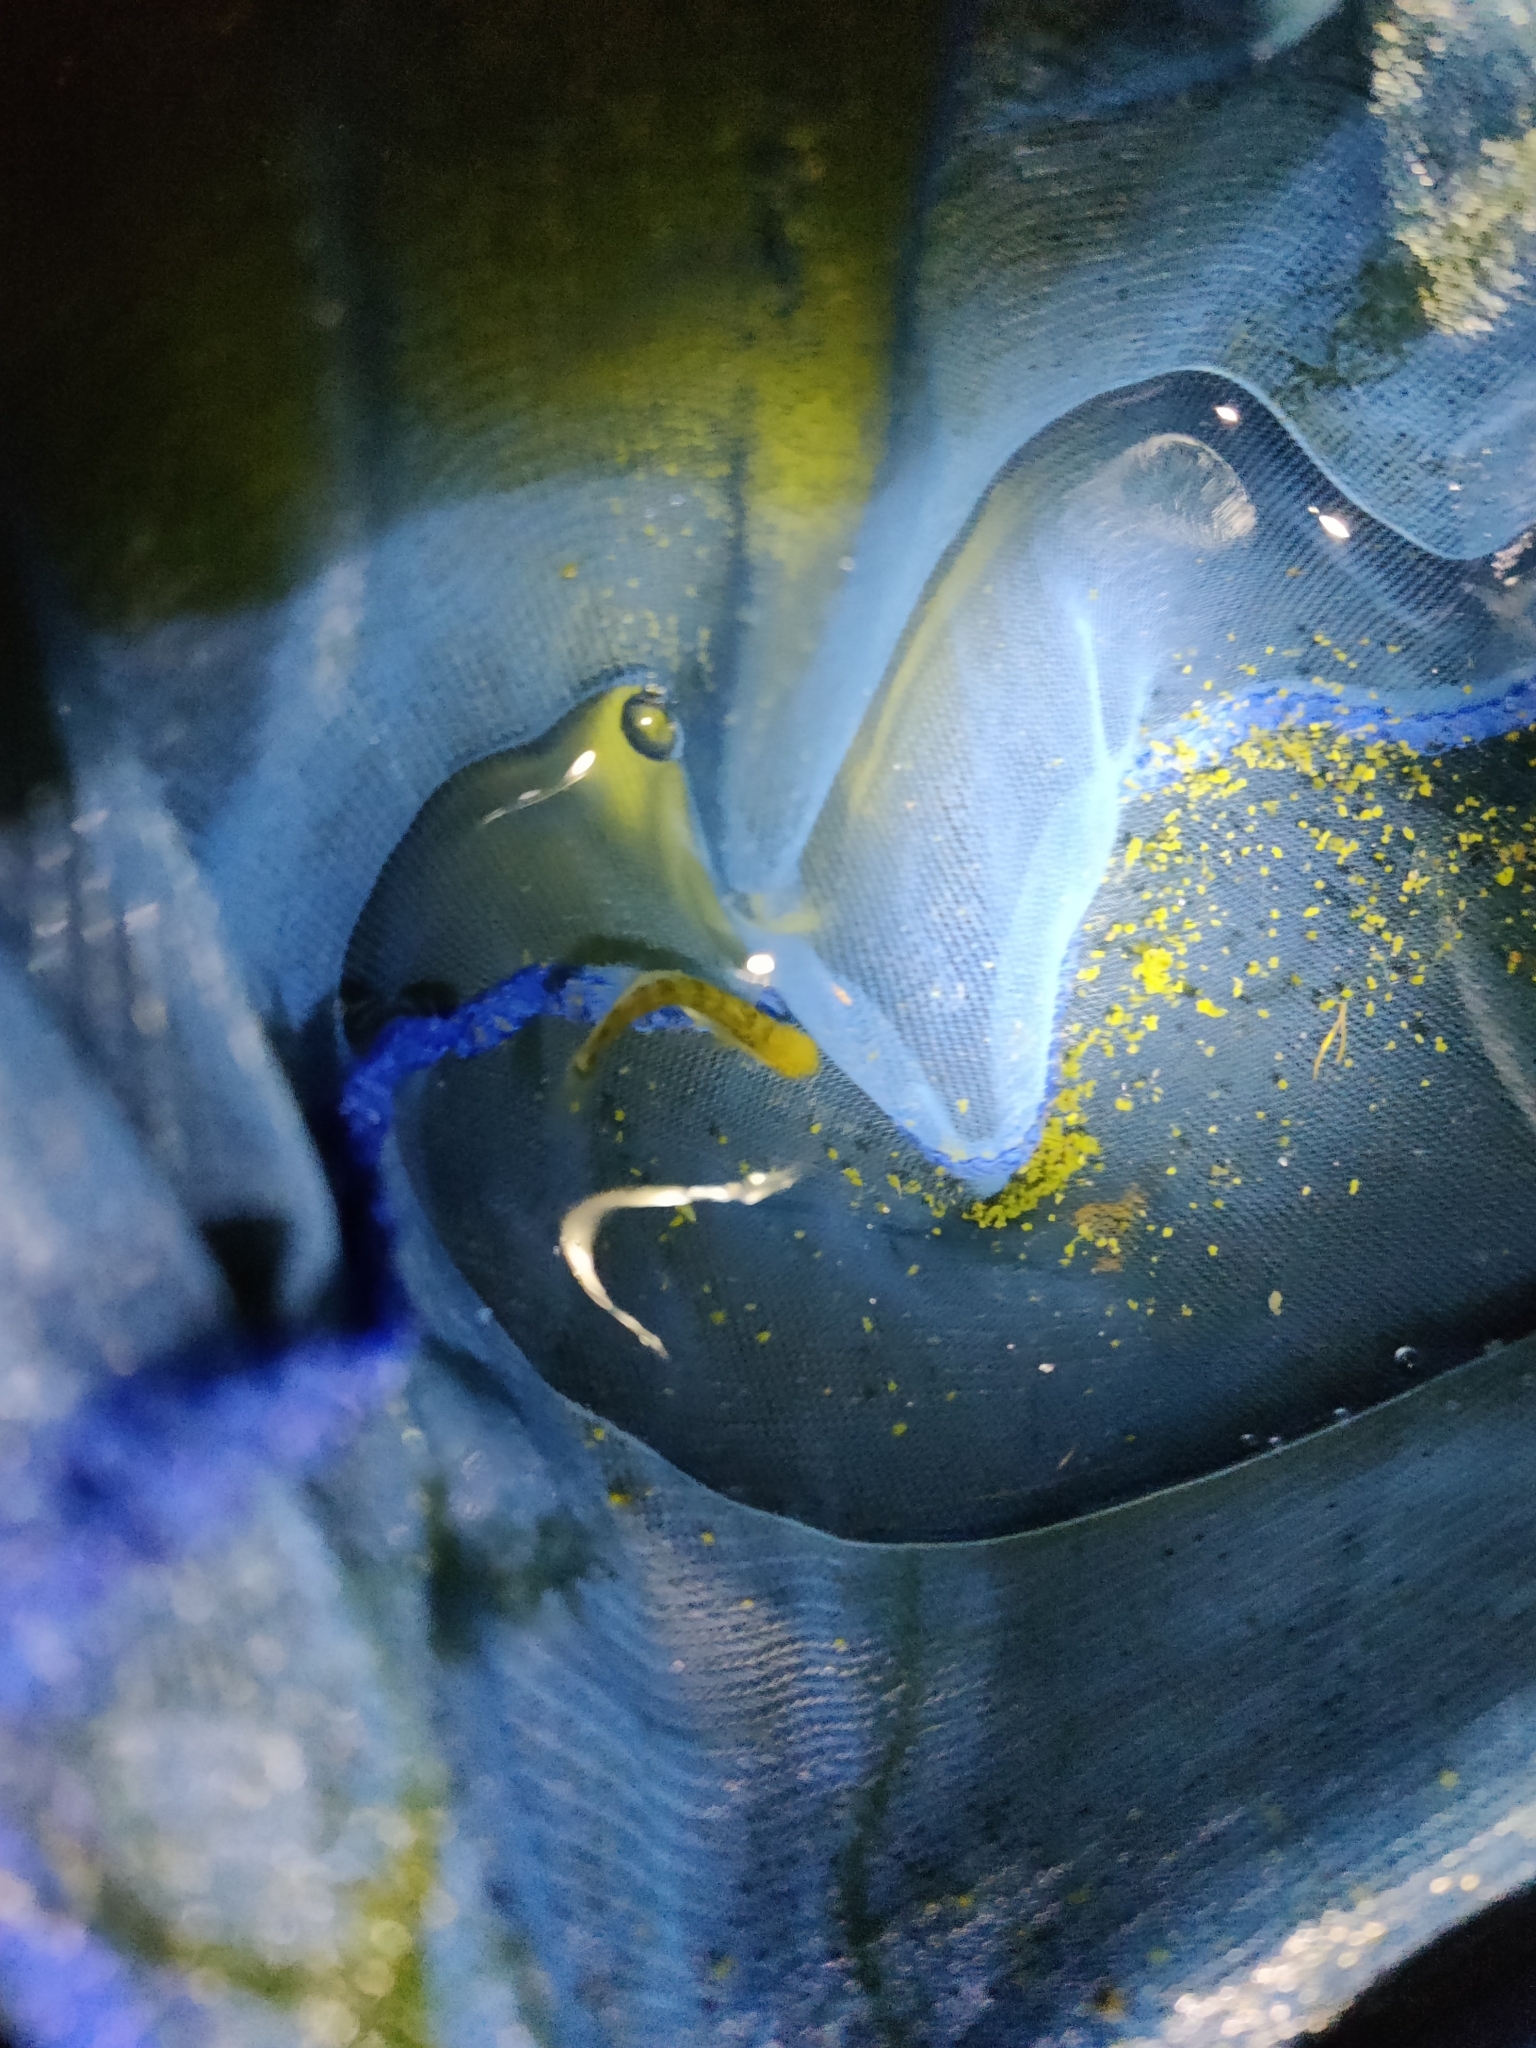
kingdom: Animalia
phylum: Chordata
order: Gasterosteiformes
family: Gasterosteidae
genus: Gasterosteus
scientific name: Gasterosteus aculeatus
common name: Three-spined stickleback
